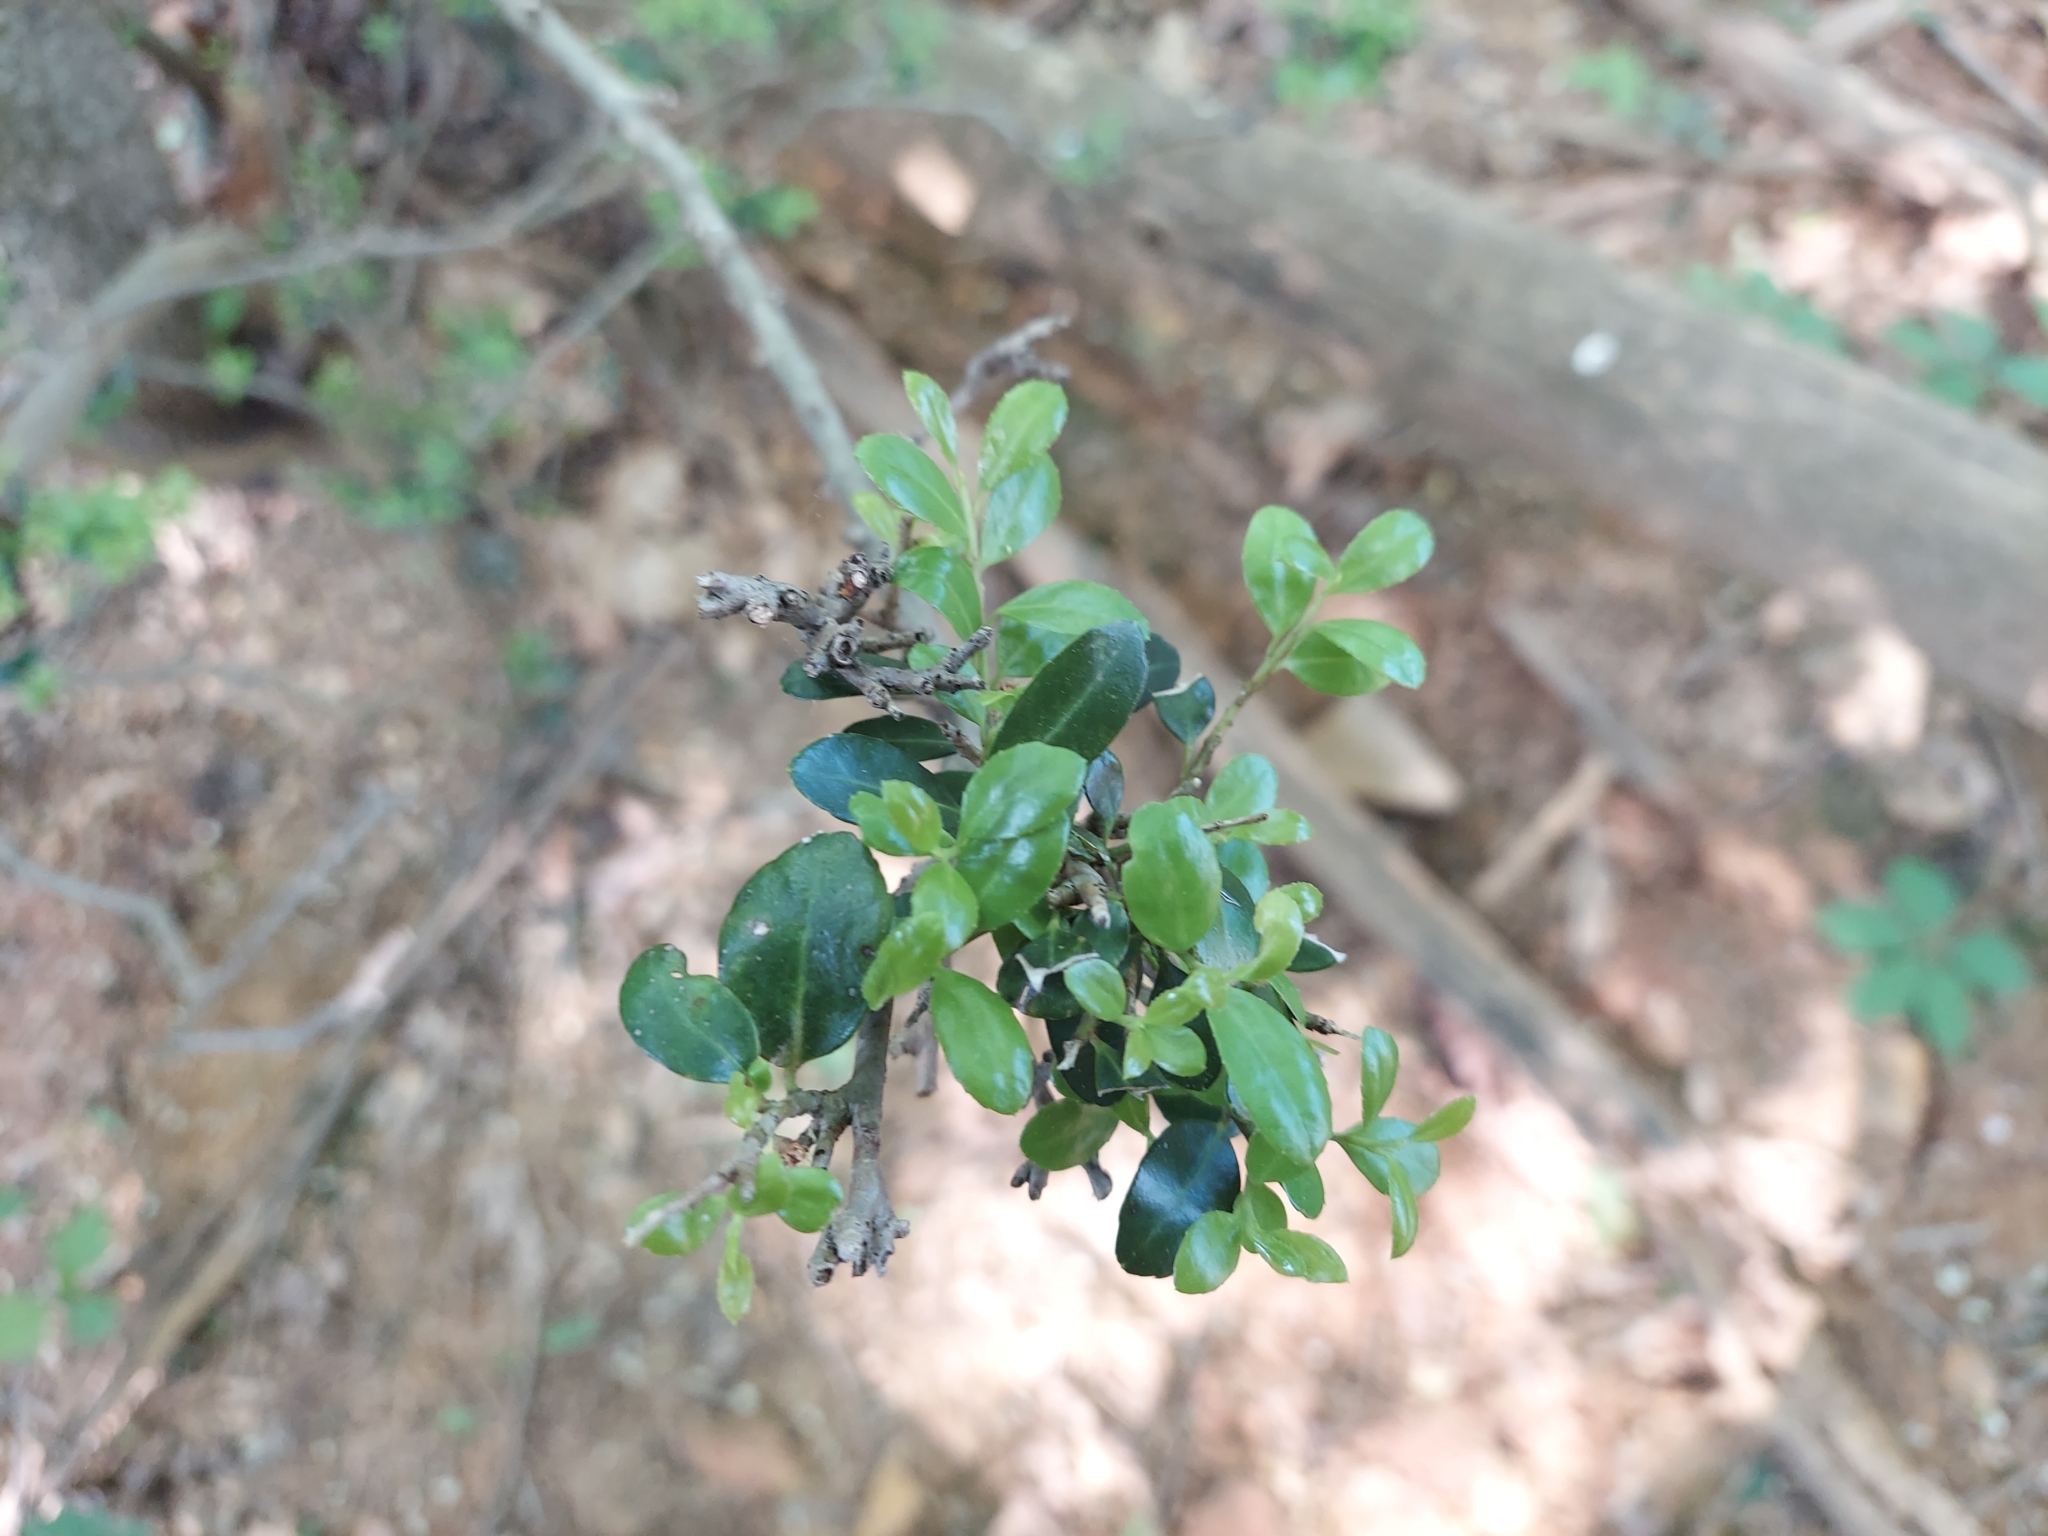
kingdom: Plantae
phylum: Tracheophyta
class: Magnoliopsida
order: Aquifoliales
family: Aquifoliaceae
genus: Ilex
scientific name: Ilex crenata
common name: Japanese holly
